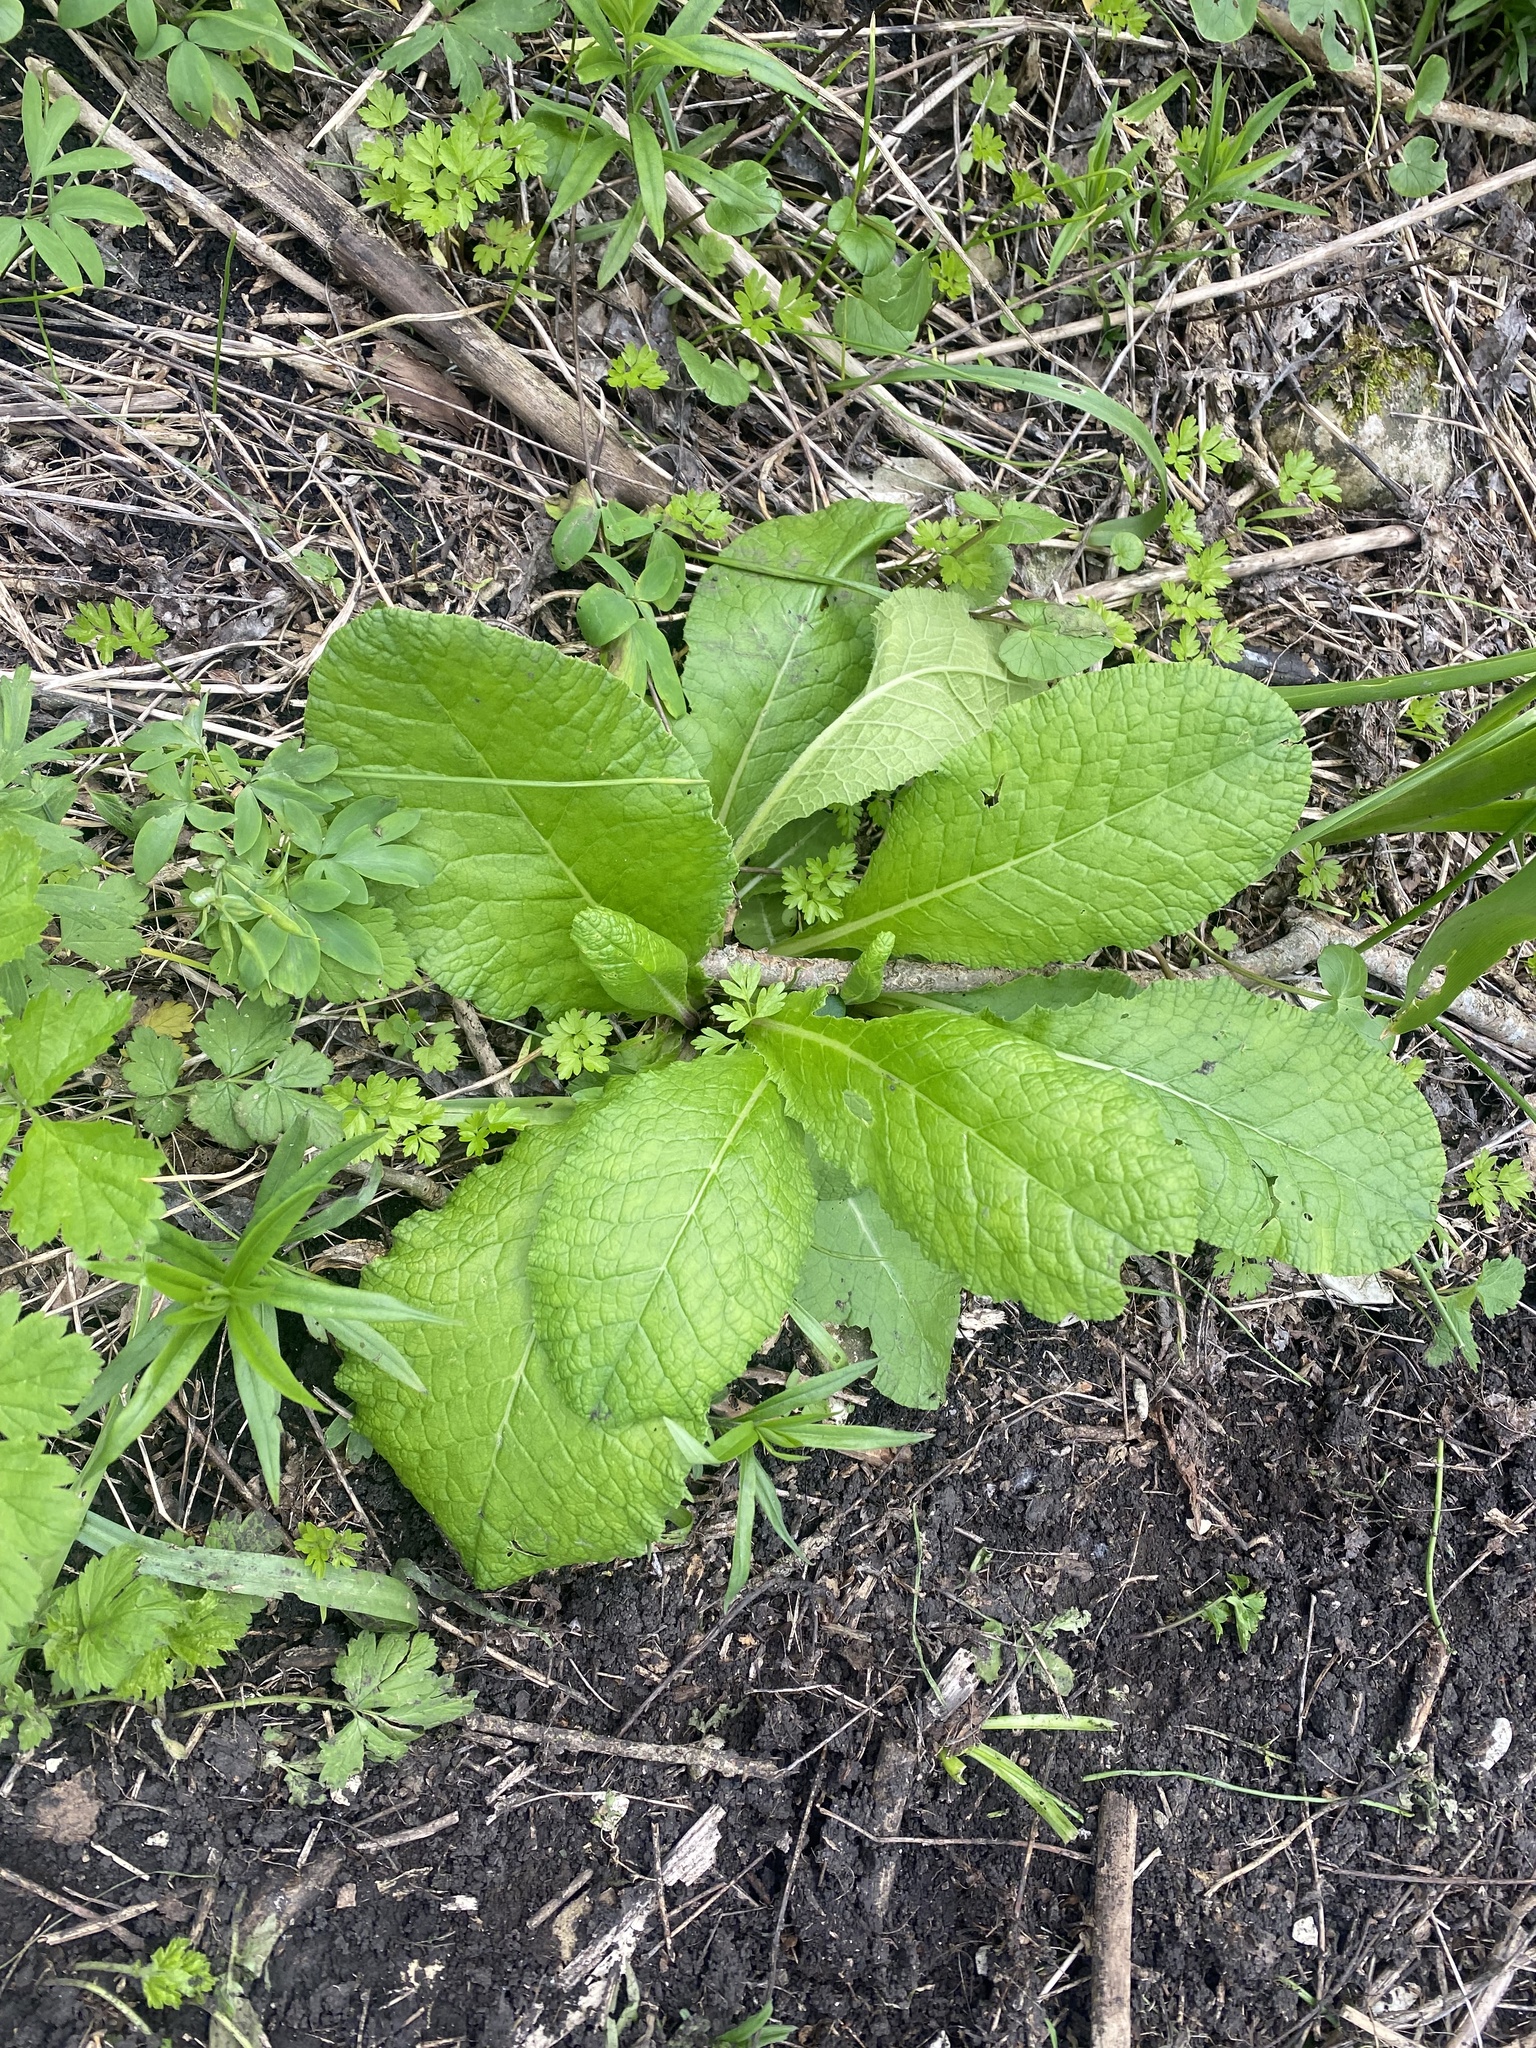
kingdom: Plantae
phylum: Tracheophyta
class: Magnoliopsida
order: Ericales
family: Primulaceae
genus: Primula
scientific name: Primula vulgaris
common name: Primrose
